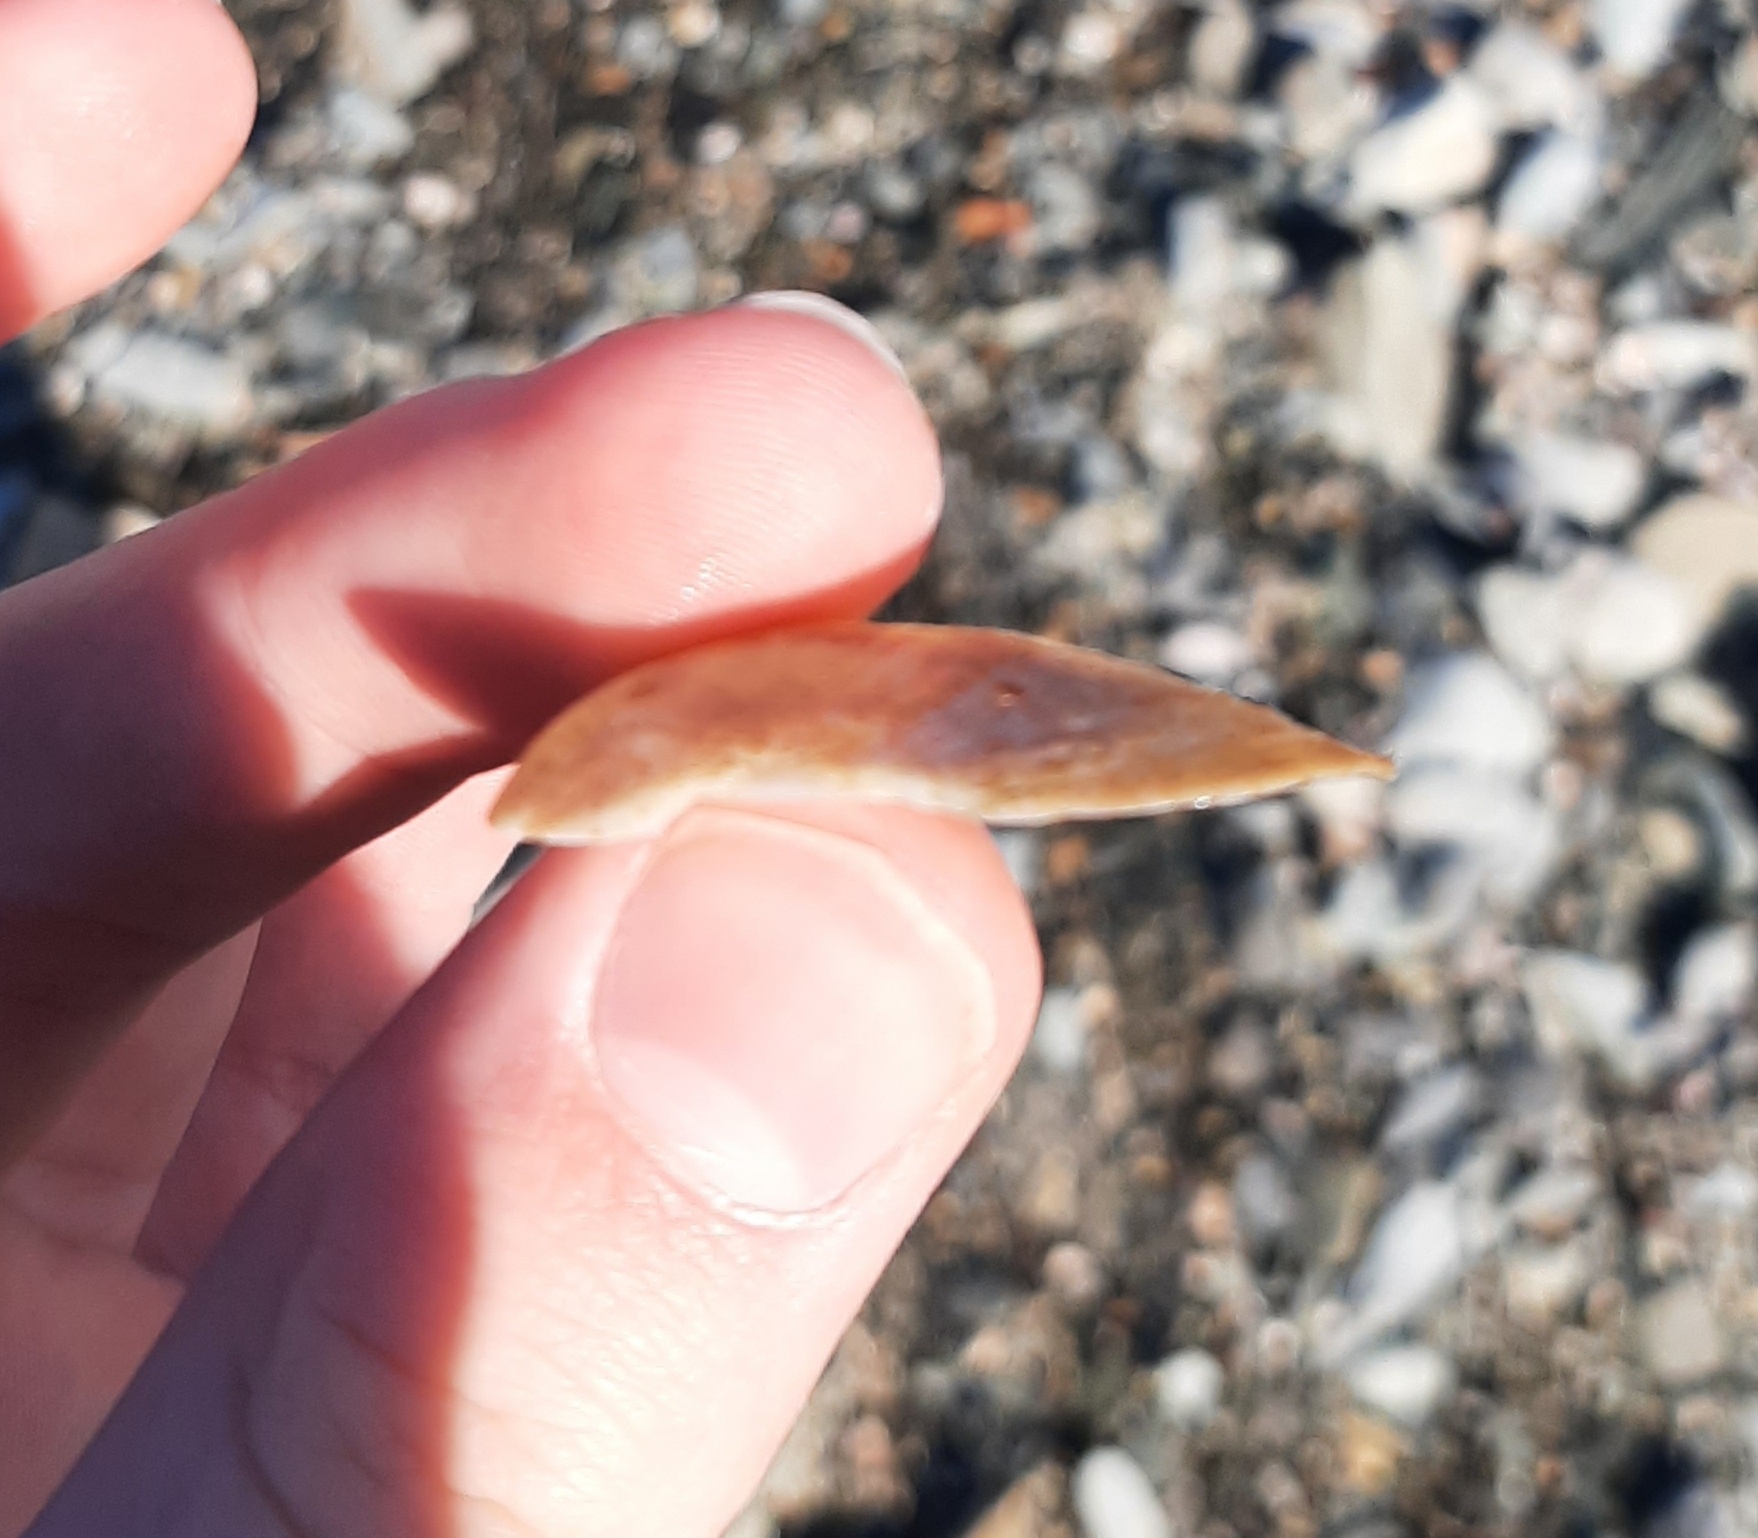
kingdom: Animalia
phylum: Mollusca
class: Gastropoda
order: Littorinimorpha
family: Calyptraeidae
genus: Crepidula
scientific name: Crepidula fornicata
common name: Slipper limpet
